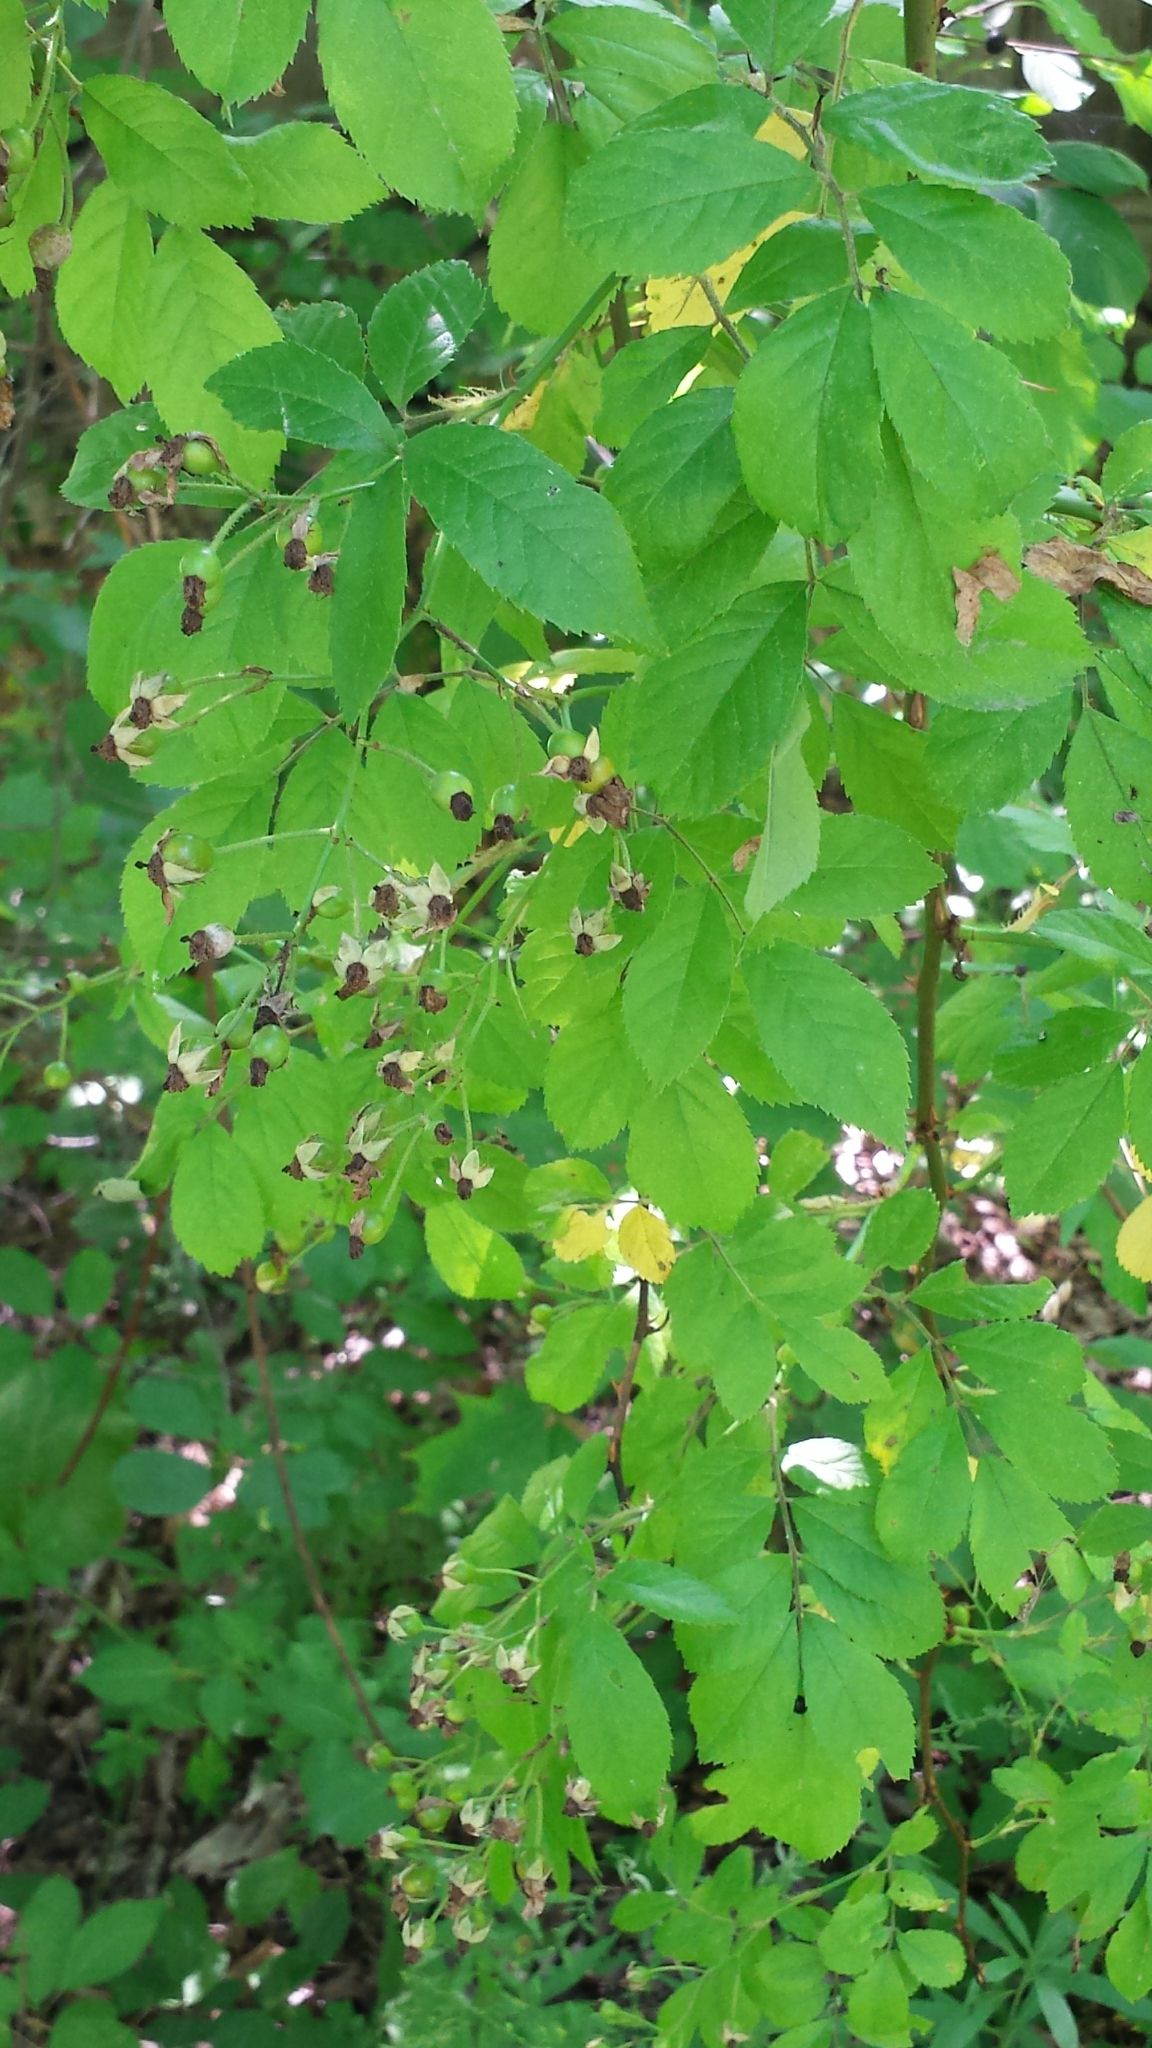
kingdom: Plantae
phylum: Tracheophyta
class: Magnoliopsida
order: Rosales
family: Rosaceae
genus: Rosa
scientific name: Rosa multiflora
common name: Multiflora rose
